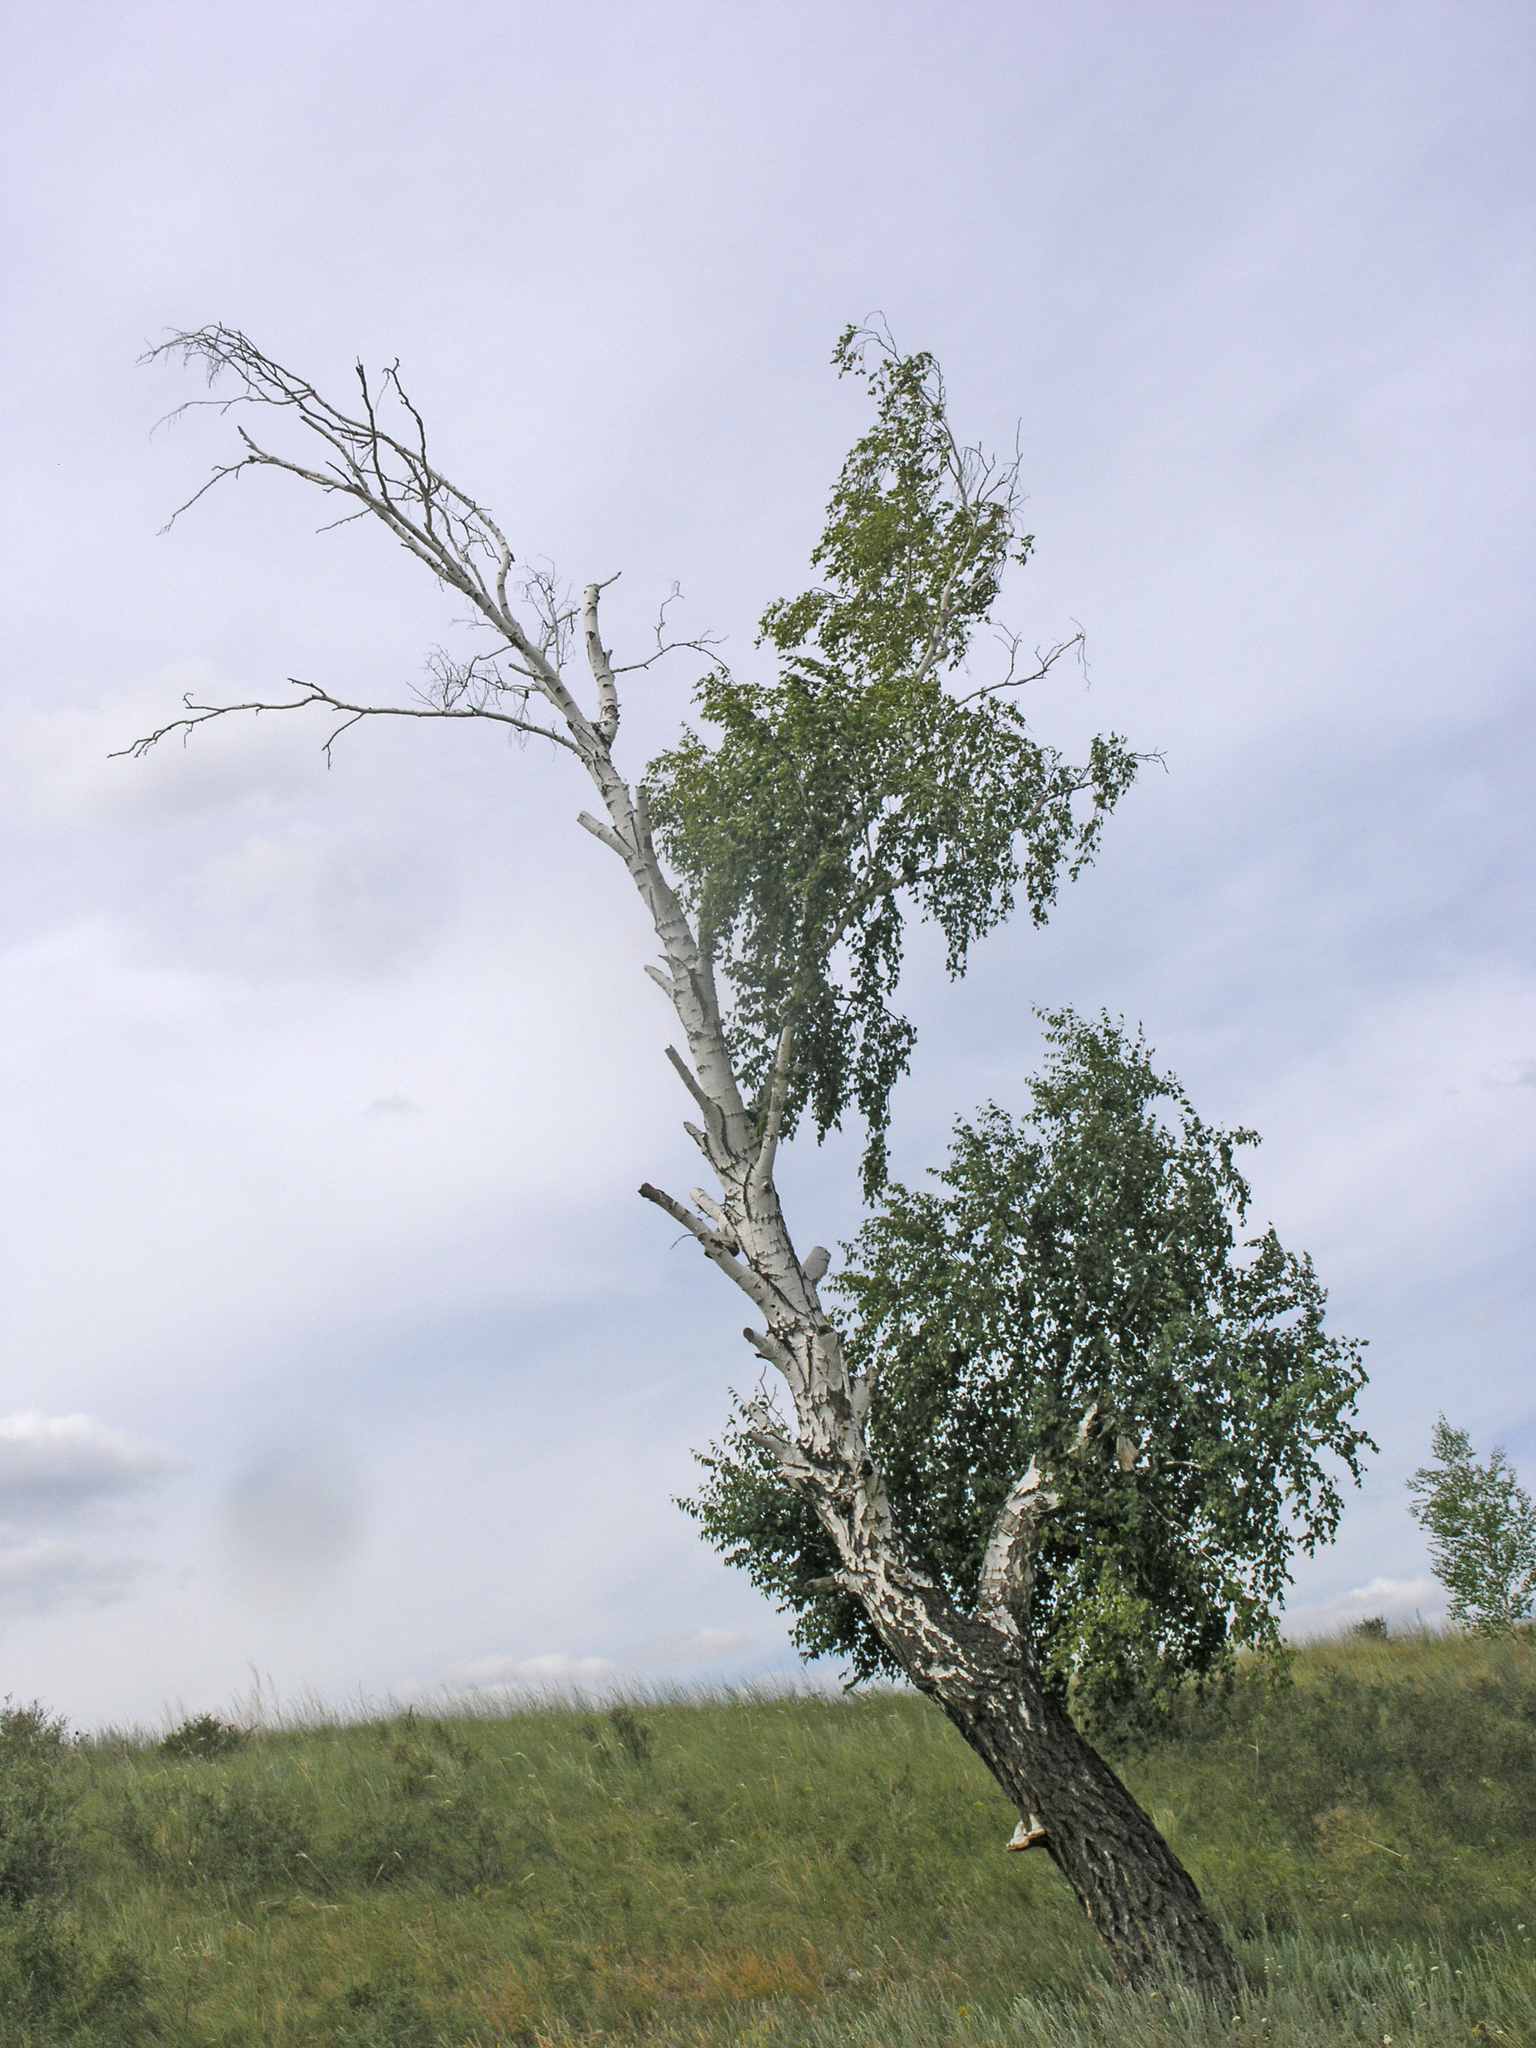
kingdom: Plantae
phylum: Tracheophyta
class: Magnoliopsida
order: Fagales
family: Betulaceae
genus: Betula
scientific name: Betula pendula
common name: Silver birch
